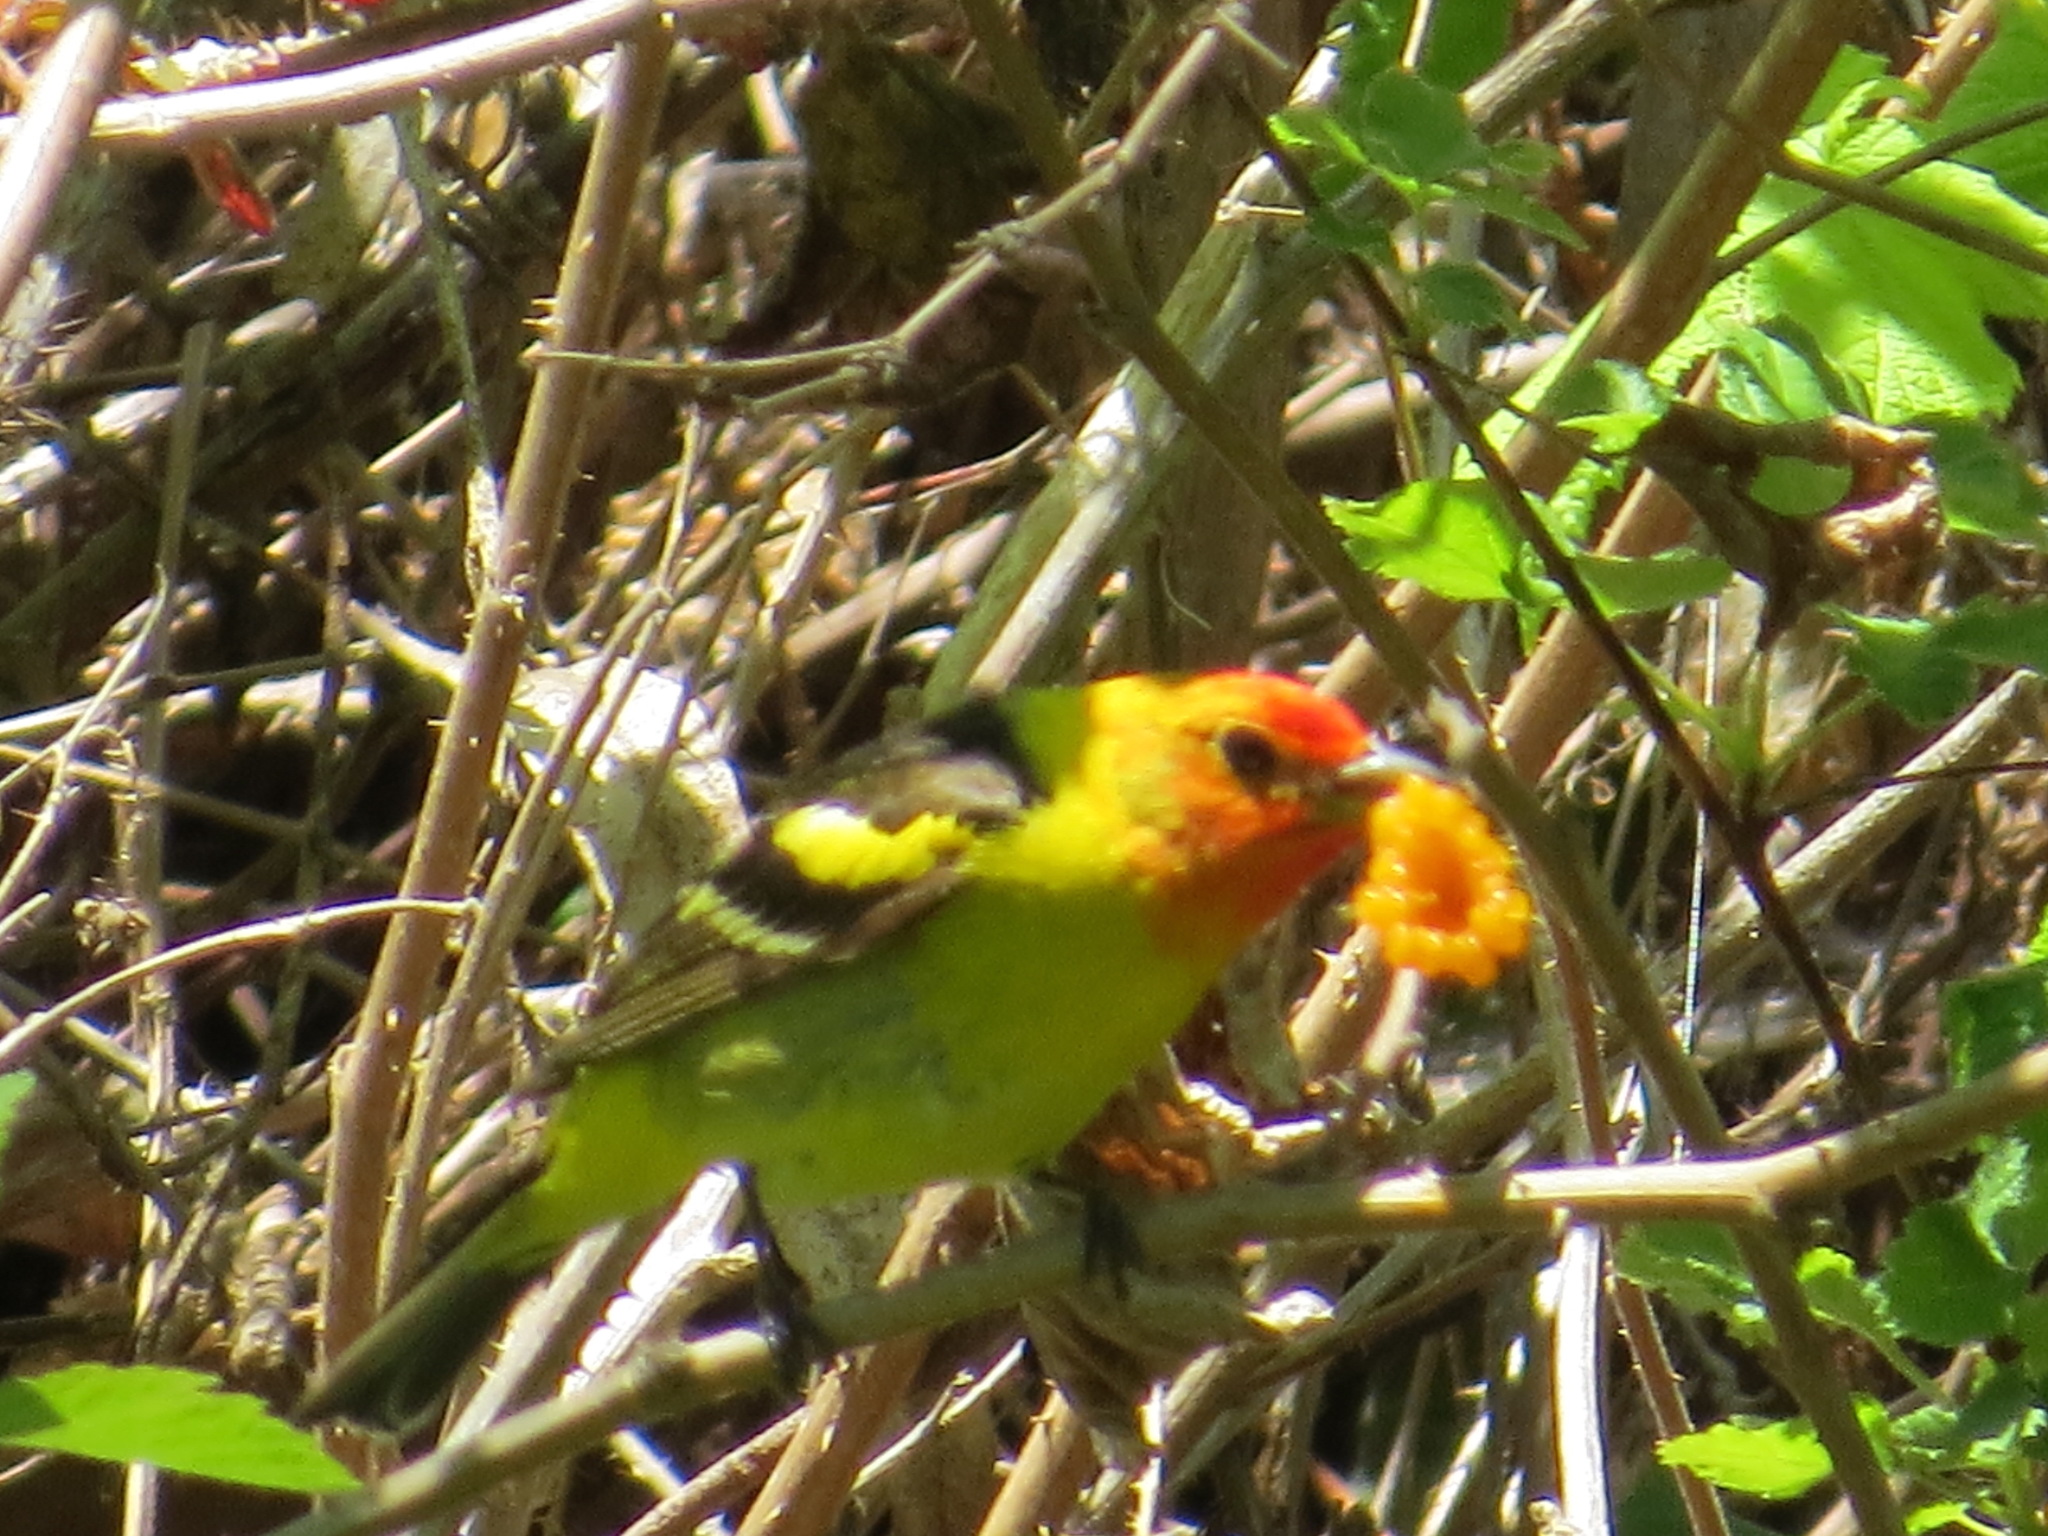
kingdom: Animalia
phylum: Chordata
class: Aves
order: Passeriformes
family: Cardinalidae
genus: Piranga
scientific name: Piranga ludoviciana
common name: Western tanager
